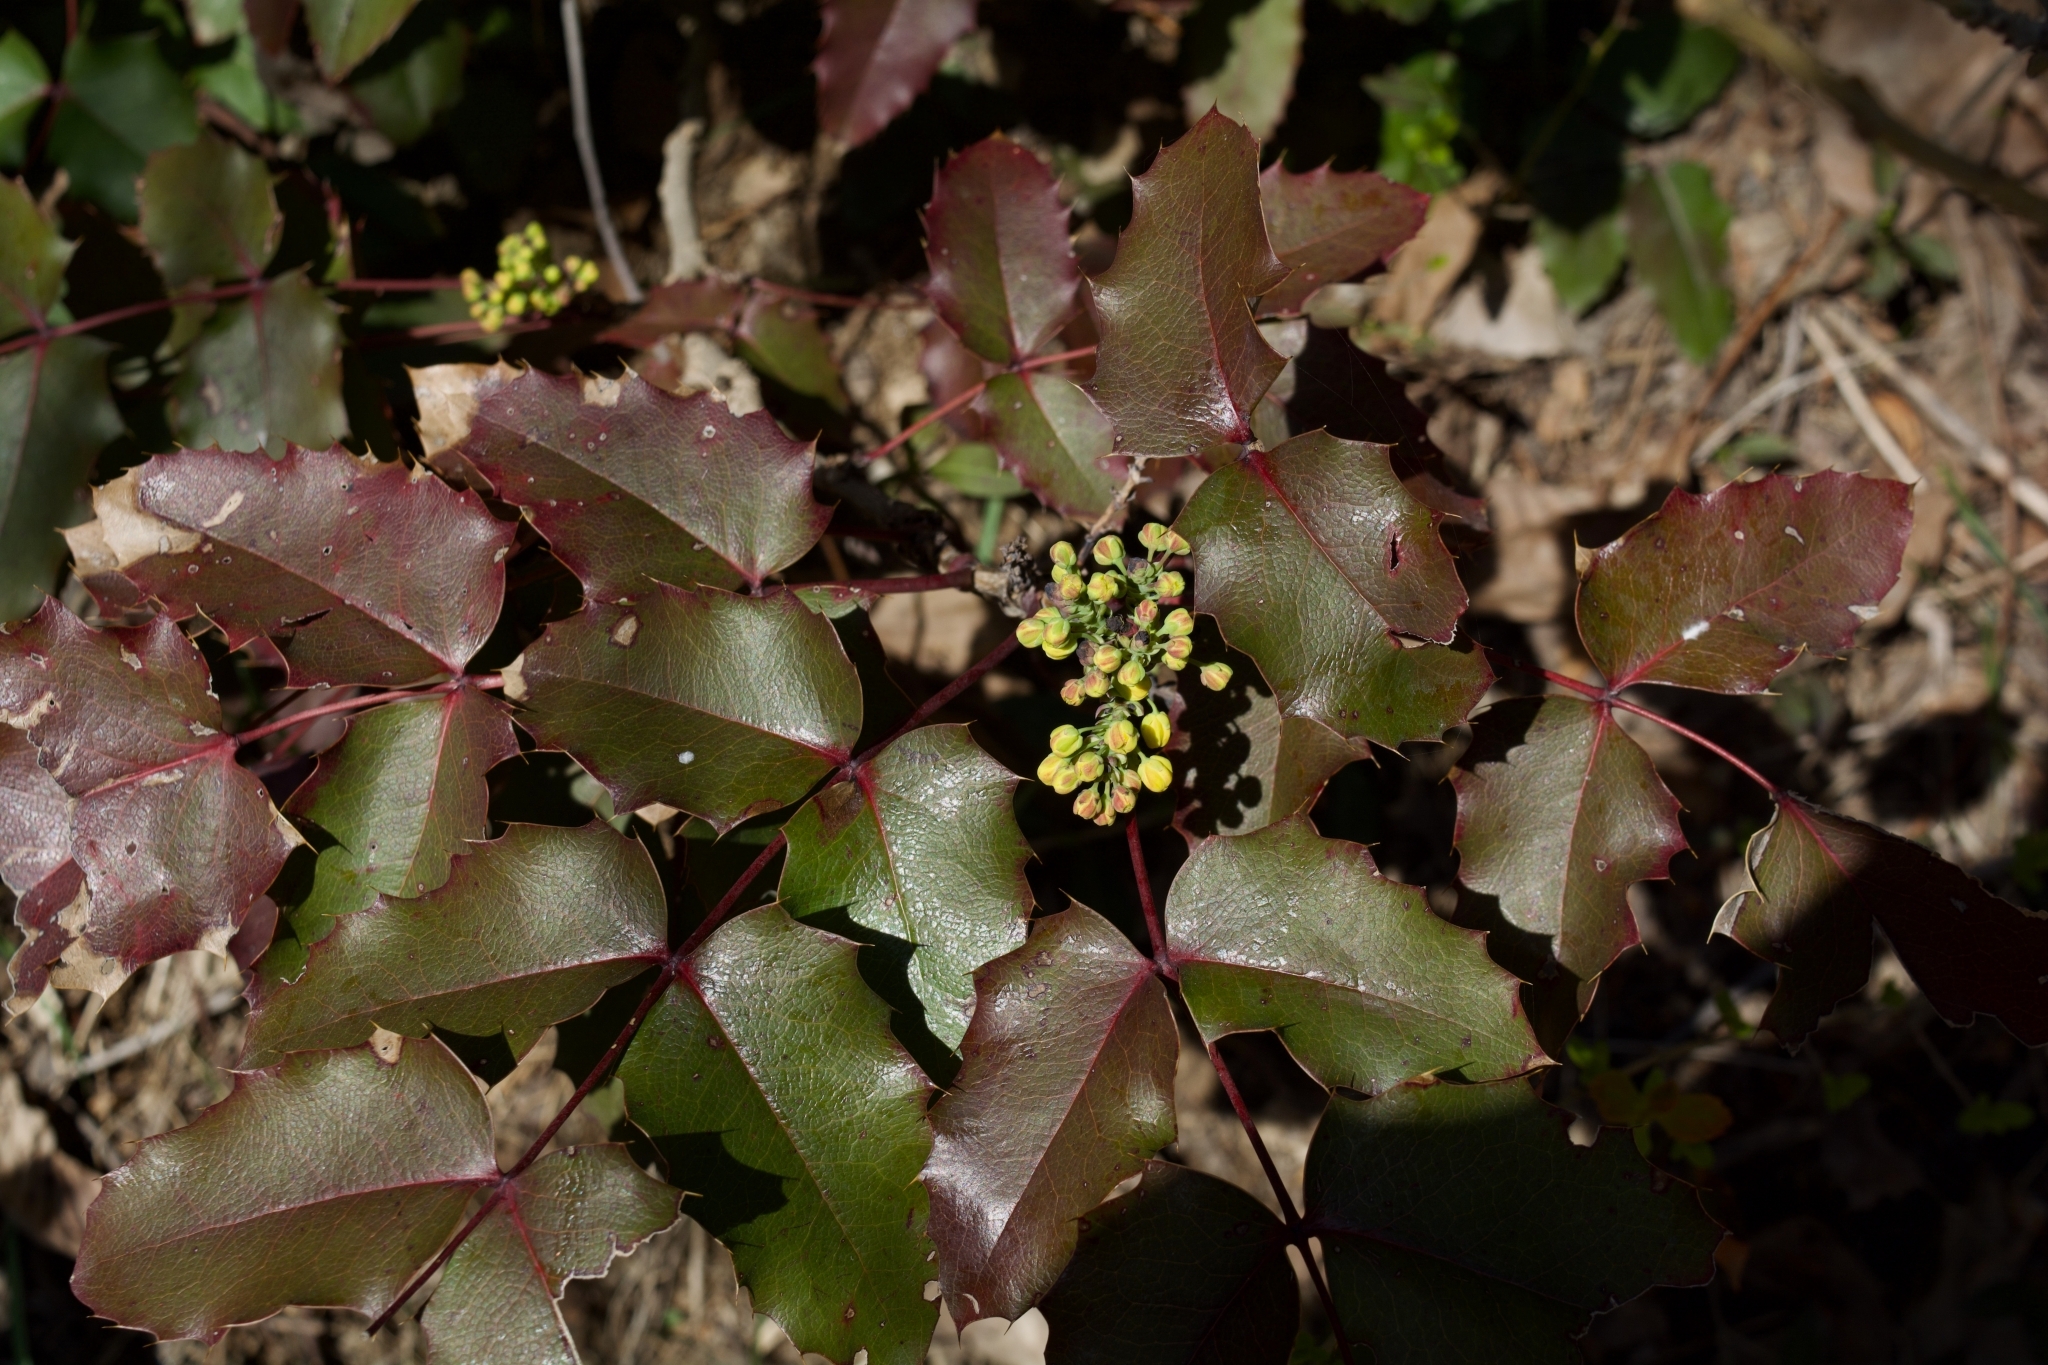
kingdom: Plantae
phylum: Tracheophyta
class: Magnoliopsida
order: Ranunculales
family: Berberidaceae
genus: Mahonia
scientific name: Mahonia aquifolium
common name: Oregon-grape
